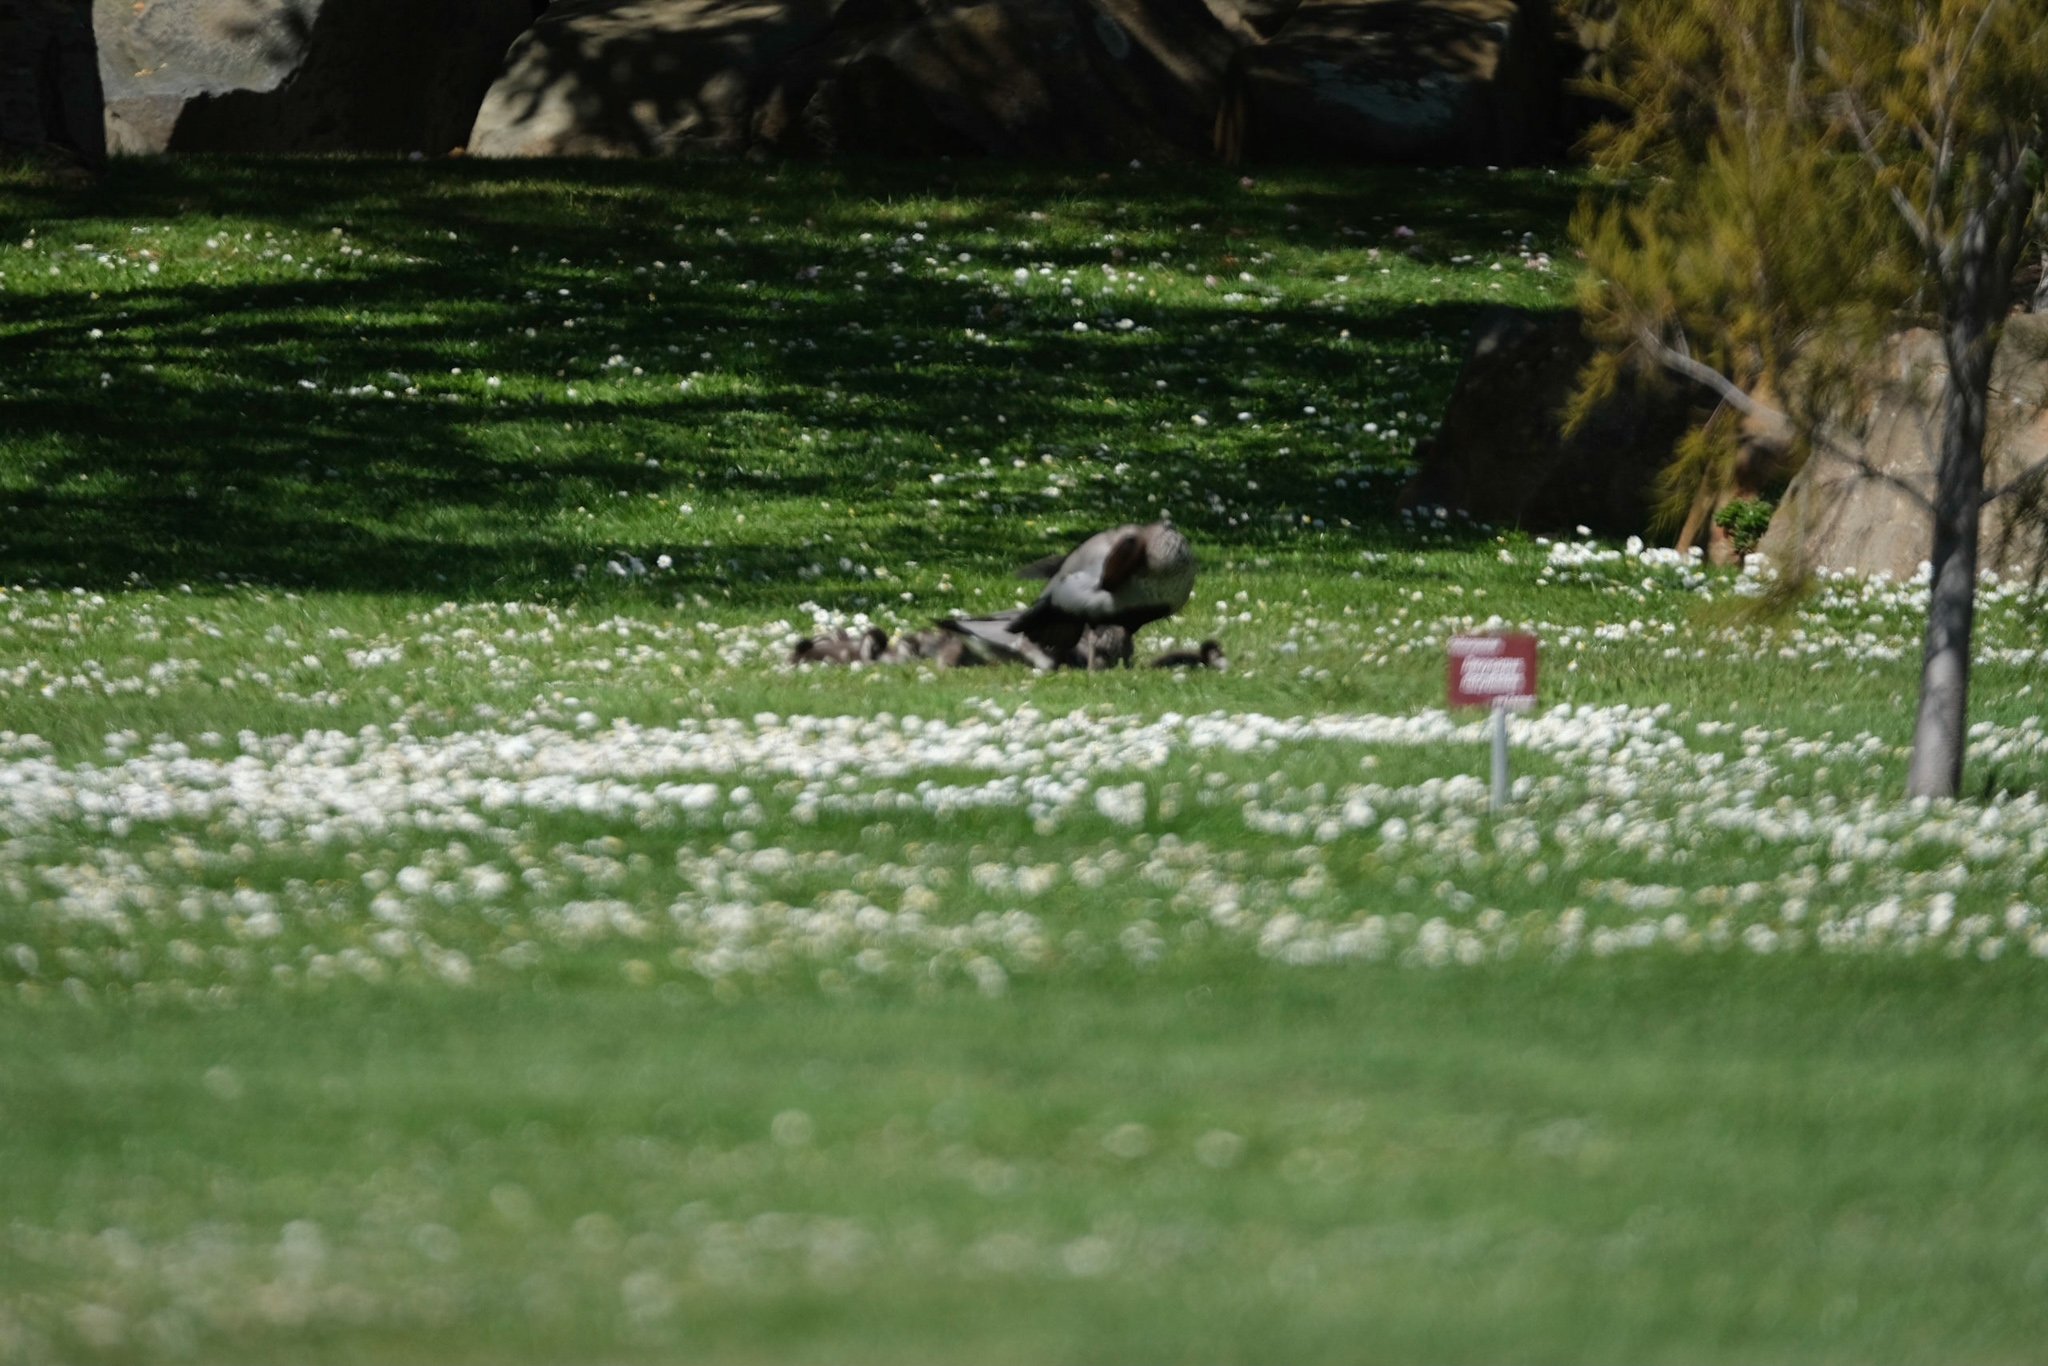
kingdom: Animalia
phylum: Chordata
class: Aves
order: Anseriformes
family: Anatidae
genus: Chenonetta
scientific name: Chenonetta jubata
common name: Maned duck
